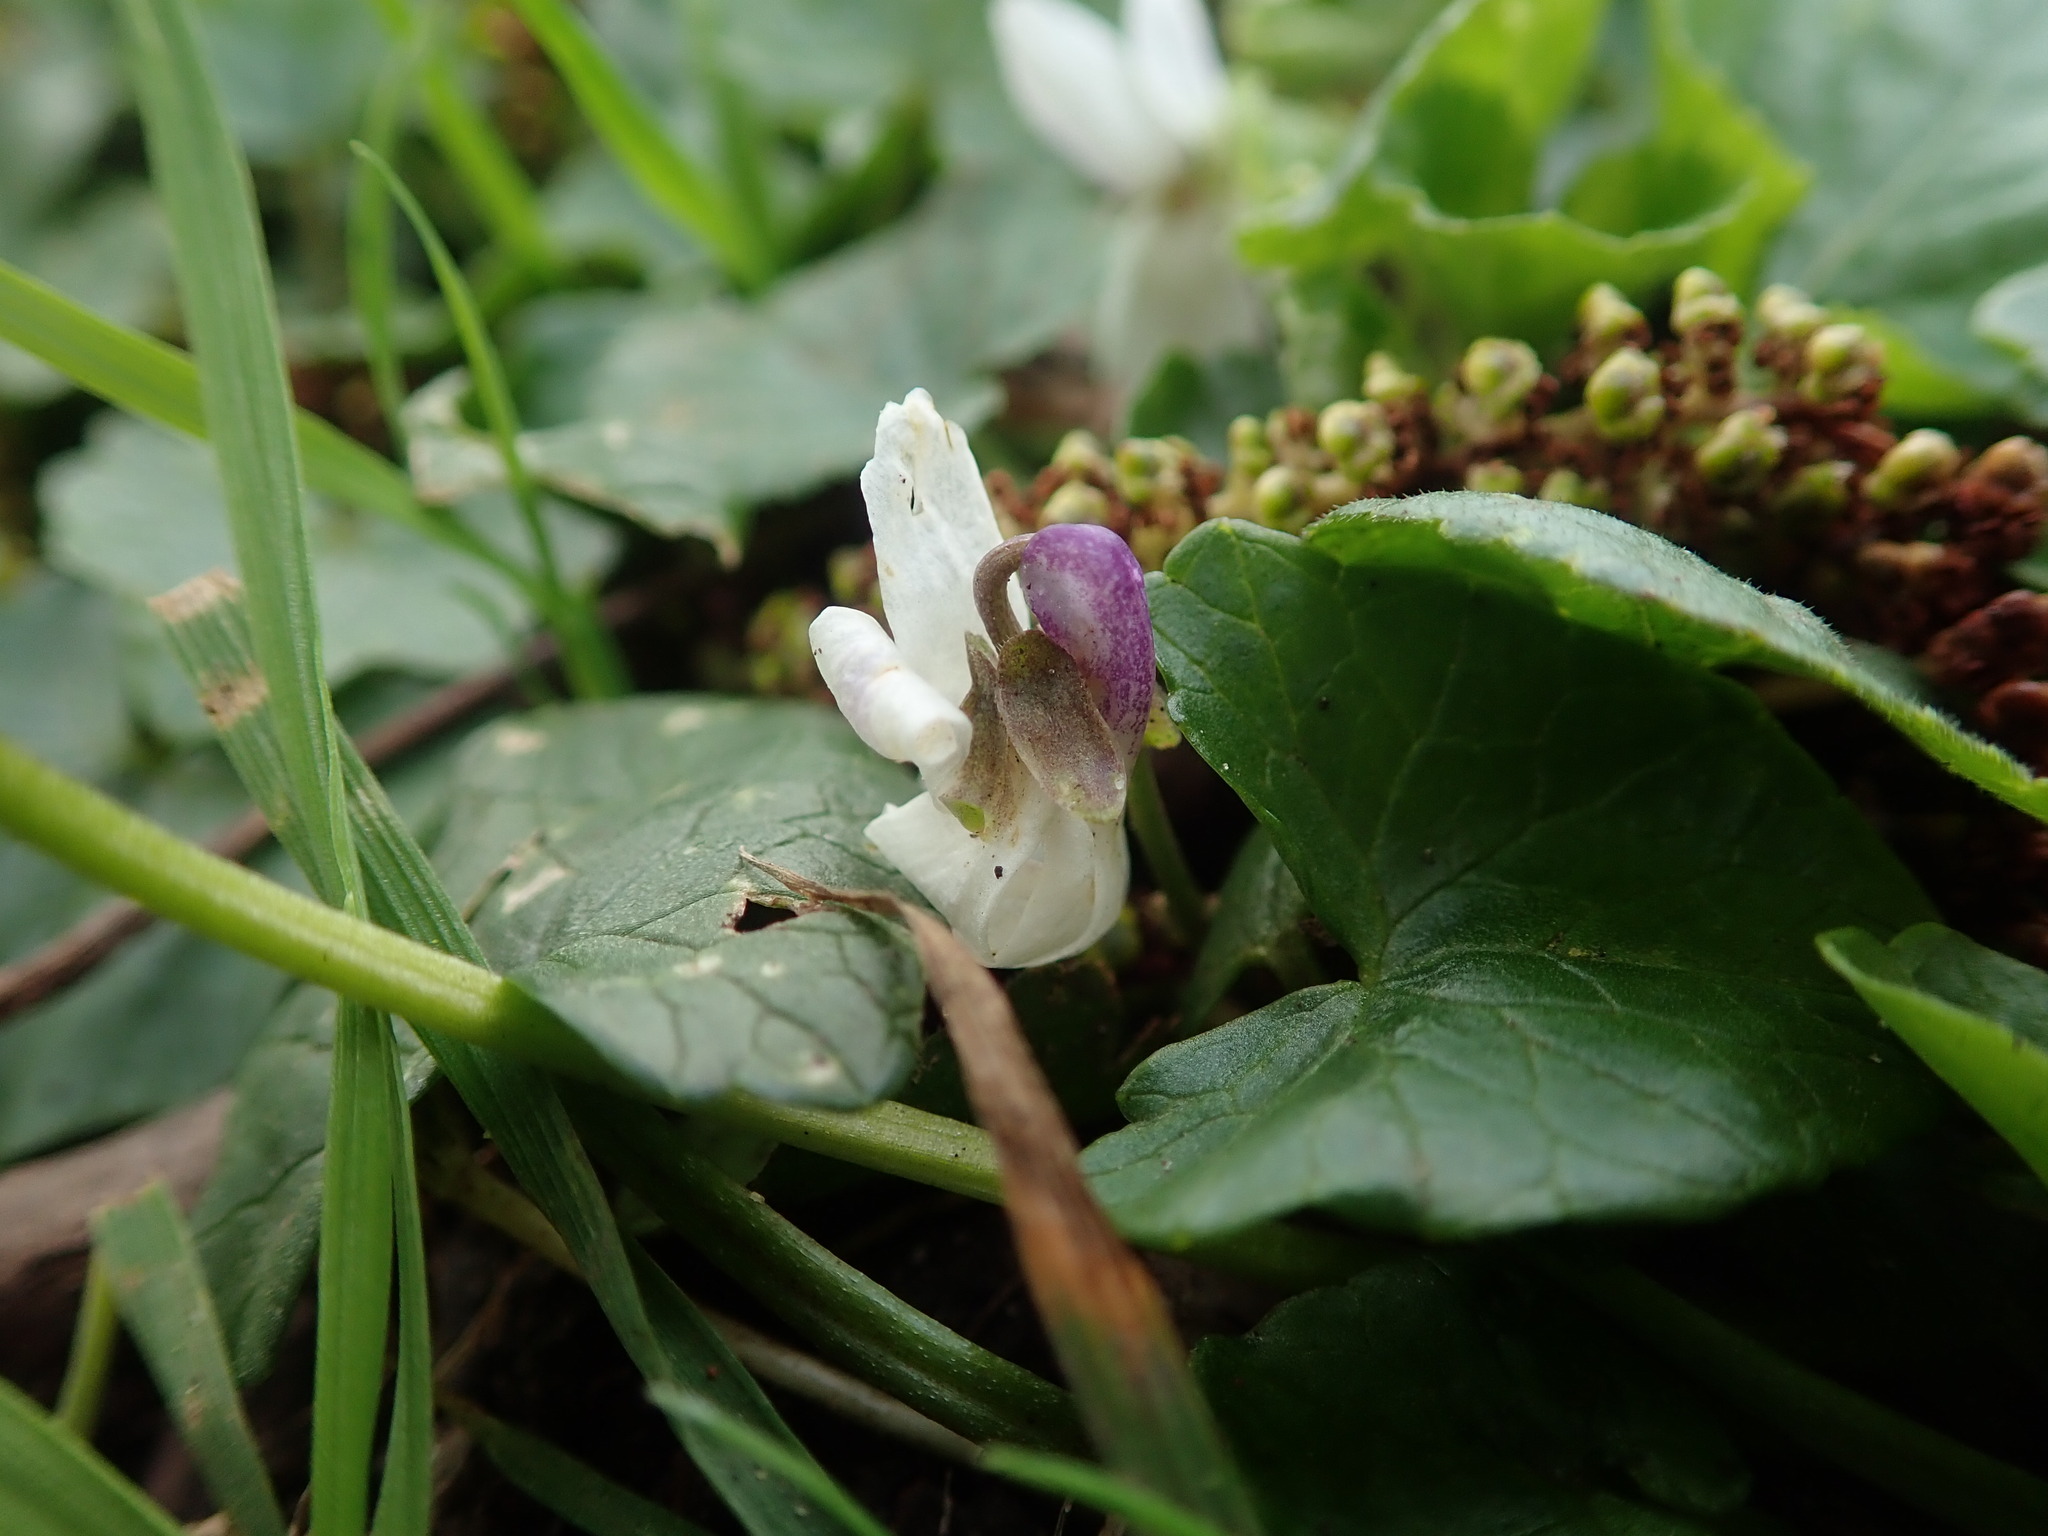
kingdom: Plantae
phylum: Tracheophyta
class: Magnoliopsida
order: Malpighiales
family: Violaceae
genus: Viola
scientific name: Viola odorata
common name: Sweet violet
